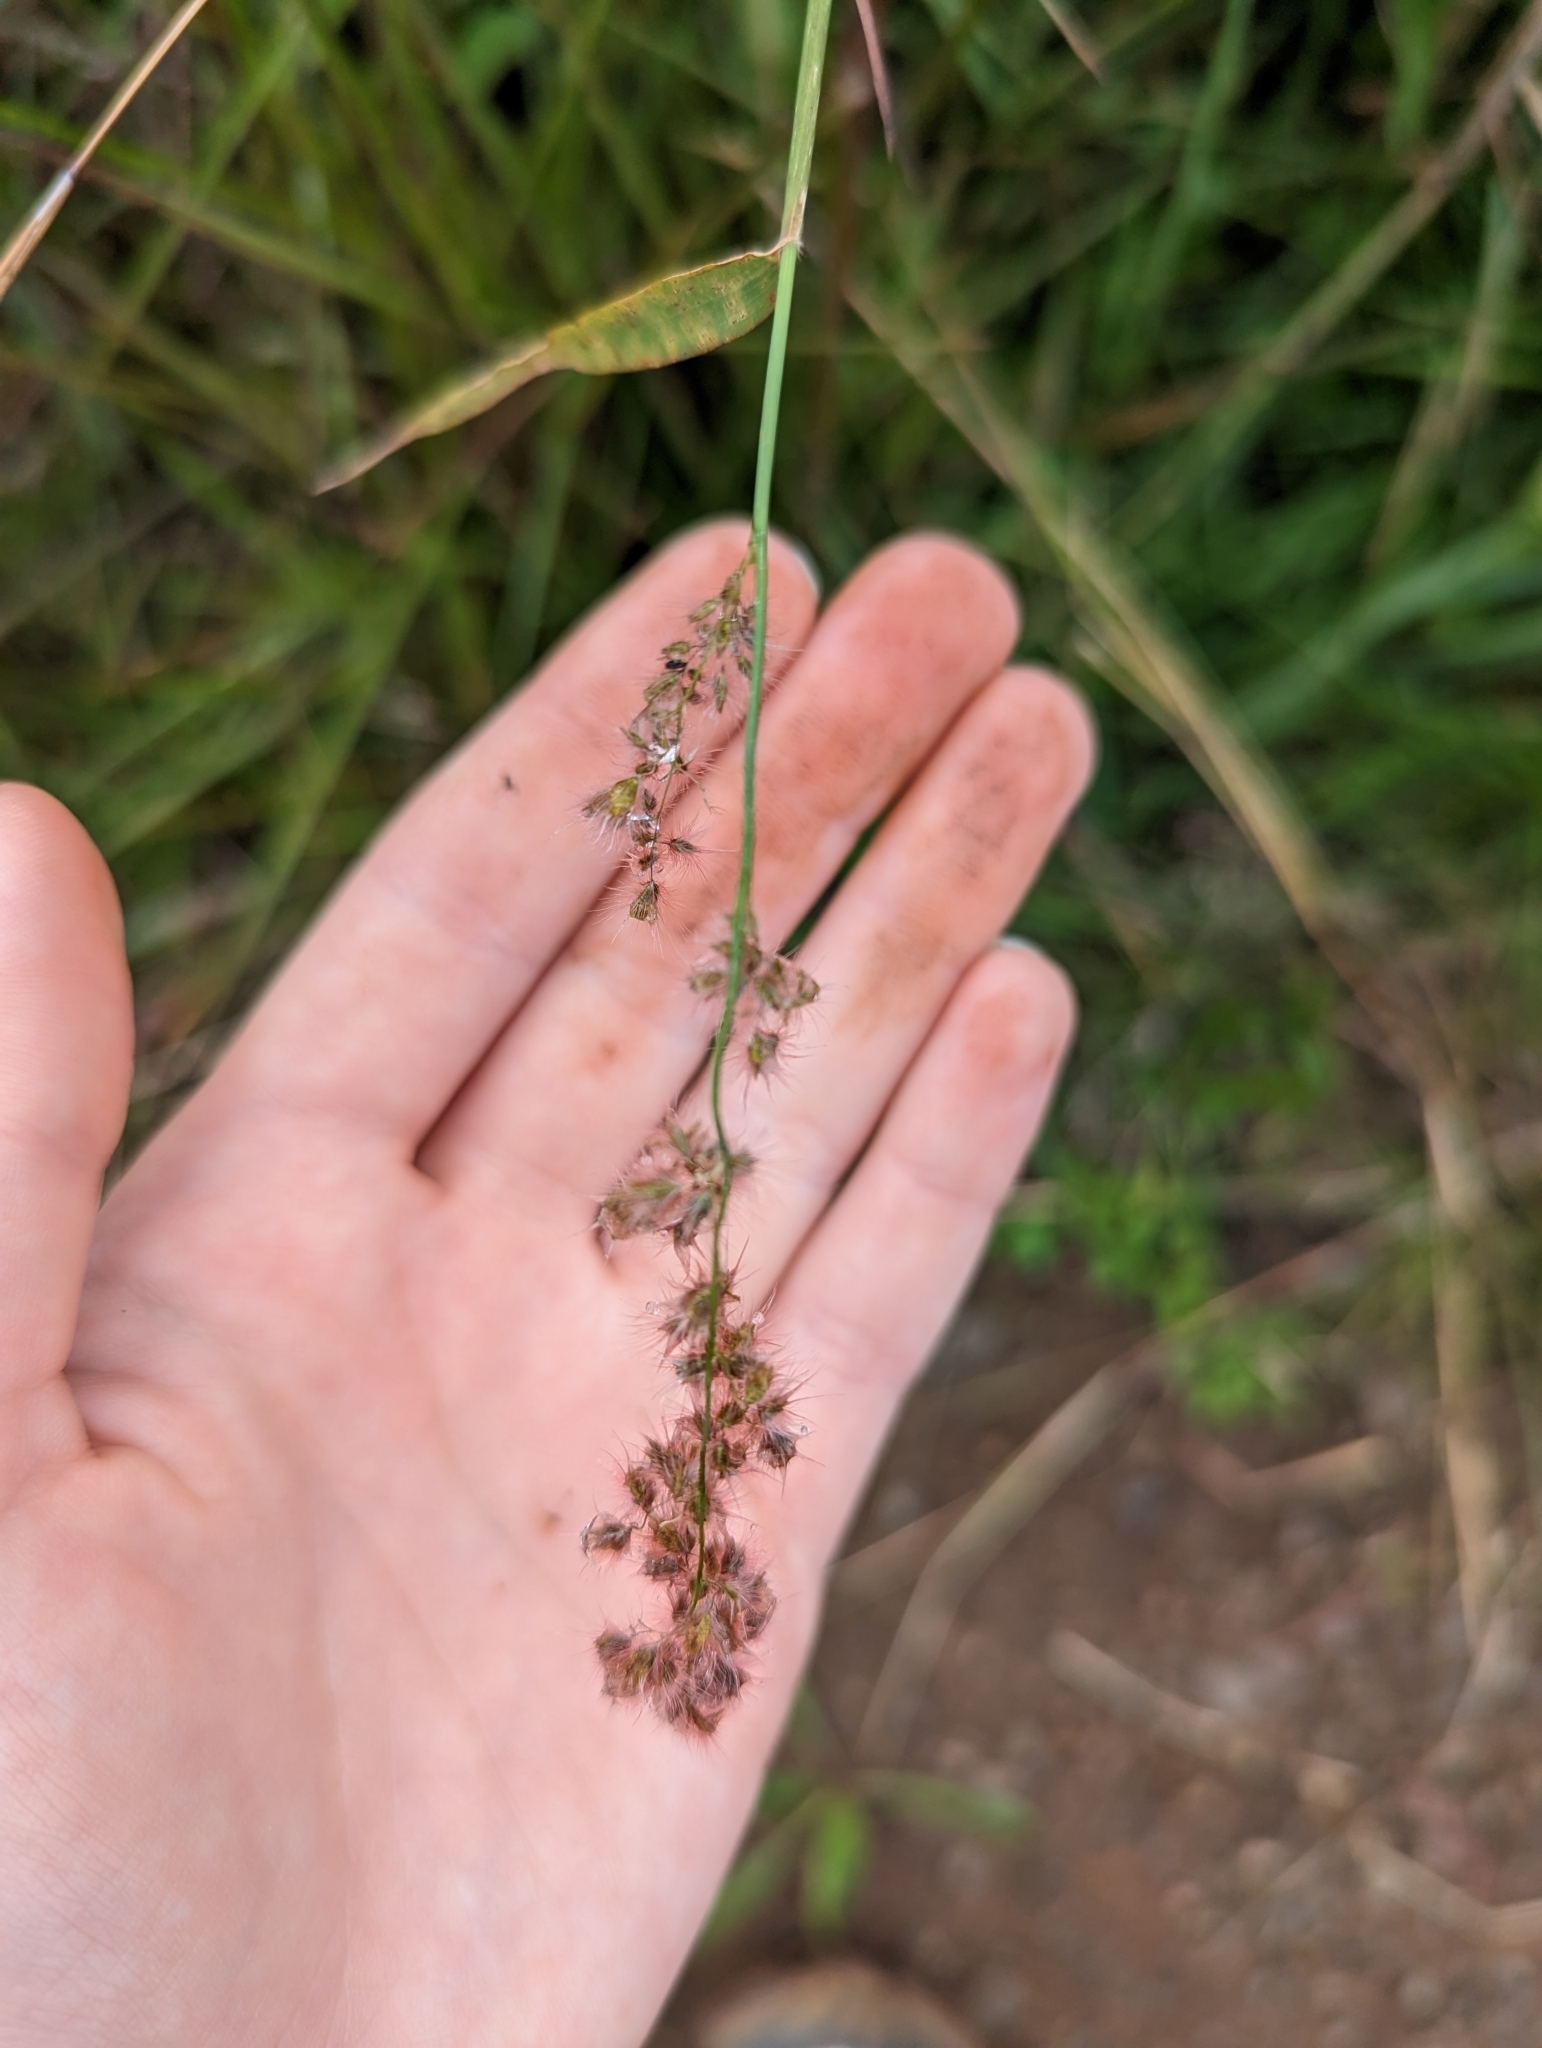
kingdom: Plantae
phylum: Tracheophyta
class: Liliopsida
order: Poales
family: Poaceae
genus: Melinis
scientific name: Melinis repens
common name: Rose natal grass
